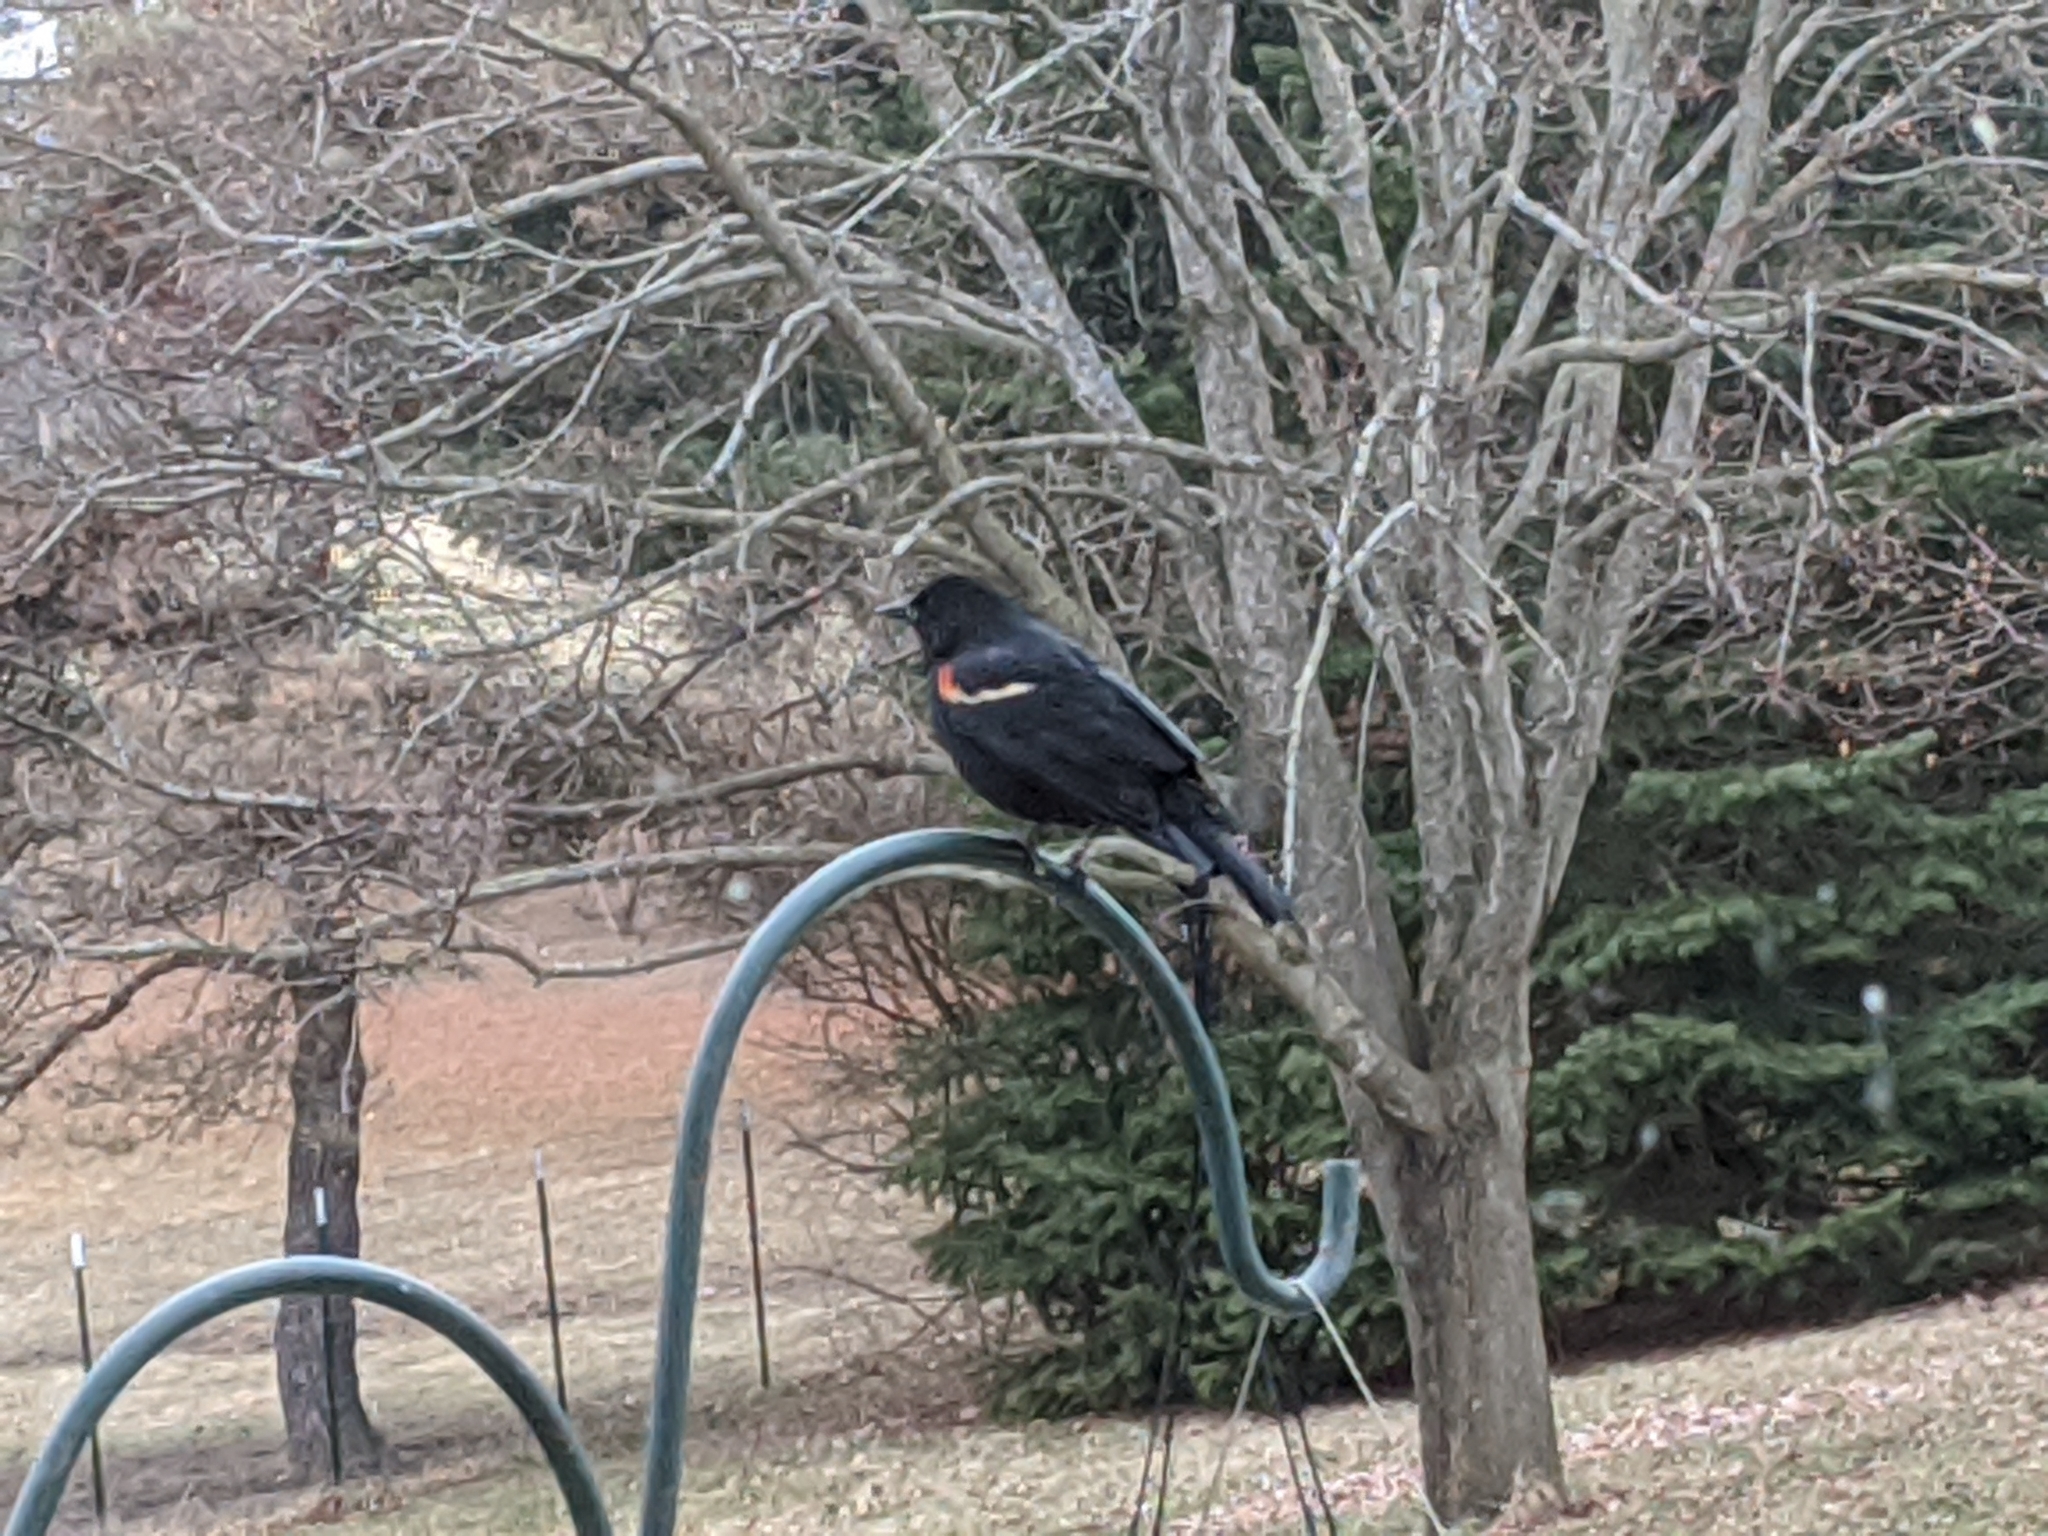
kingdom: Animalia
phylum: Chordata
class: Aves
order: Passeriformes
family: Icteridae
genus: Agelaius
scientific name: Agelaius phoeniceus
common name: Red-winged blackbird
